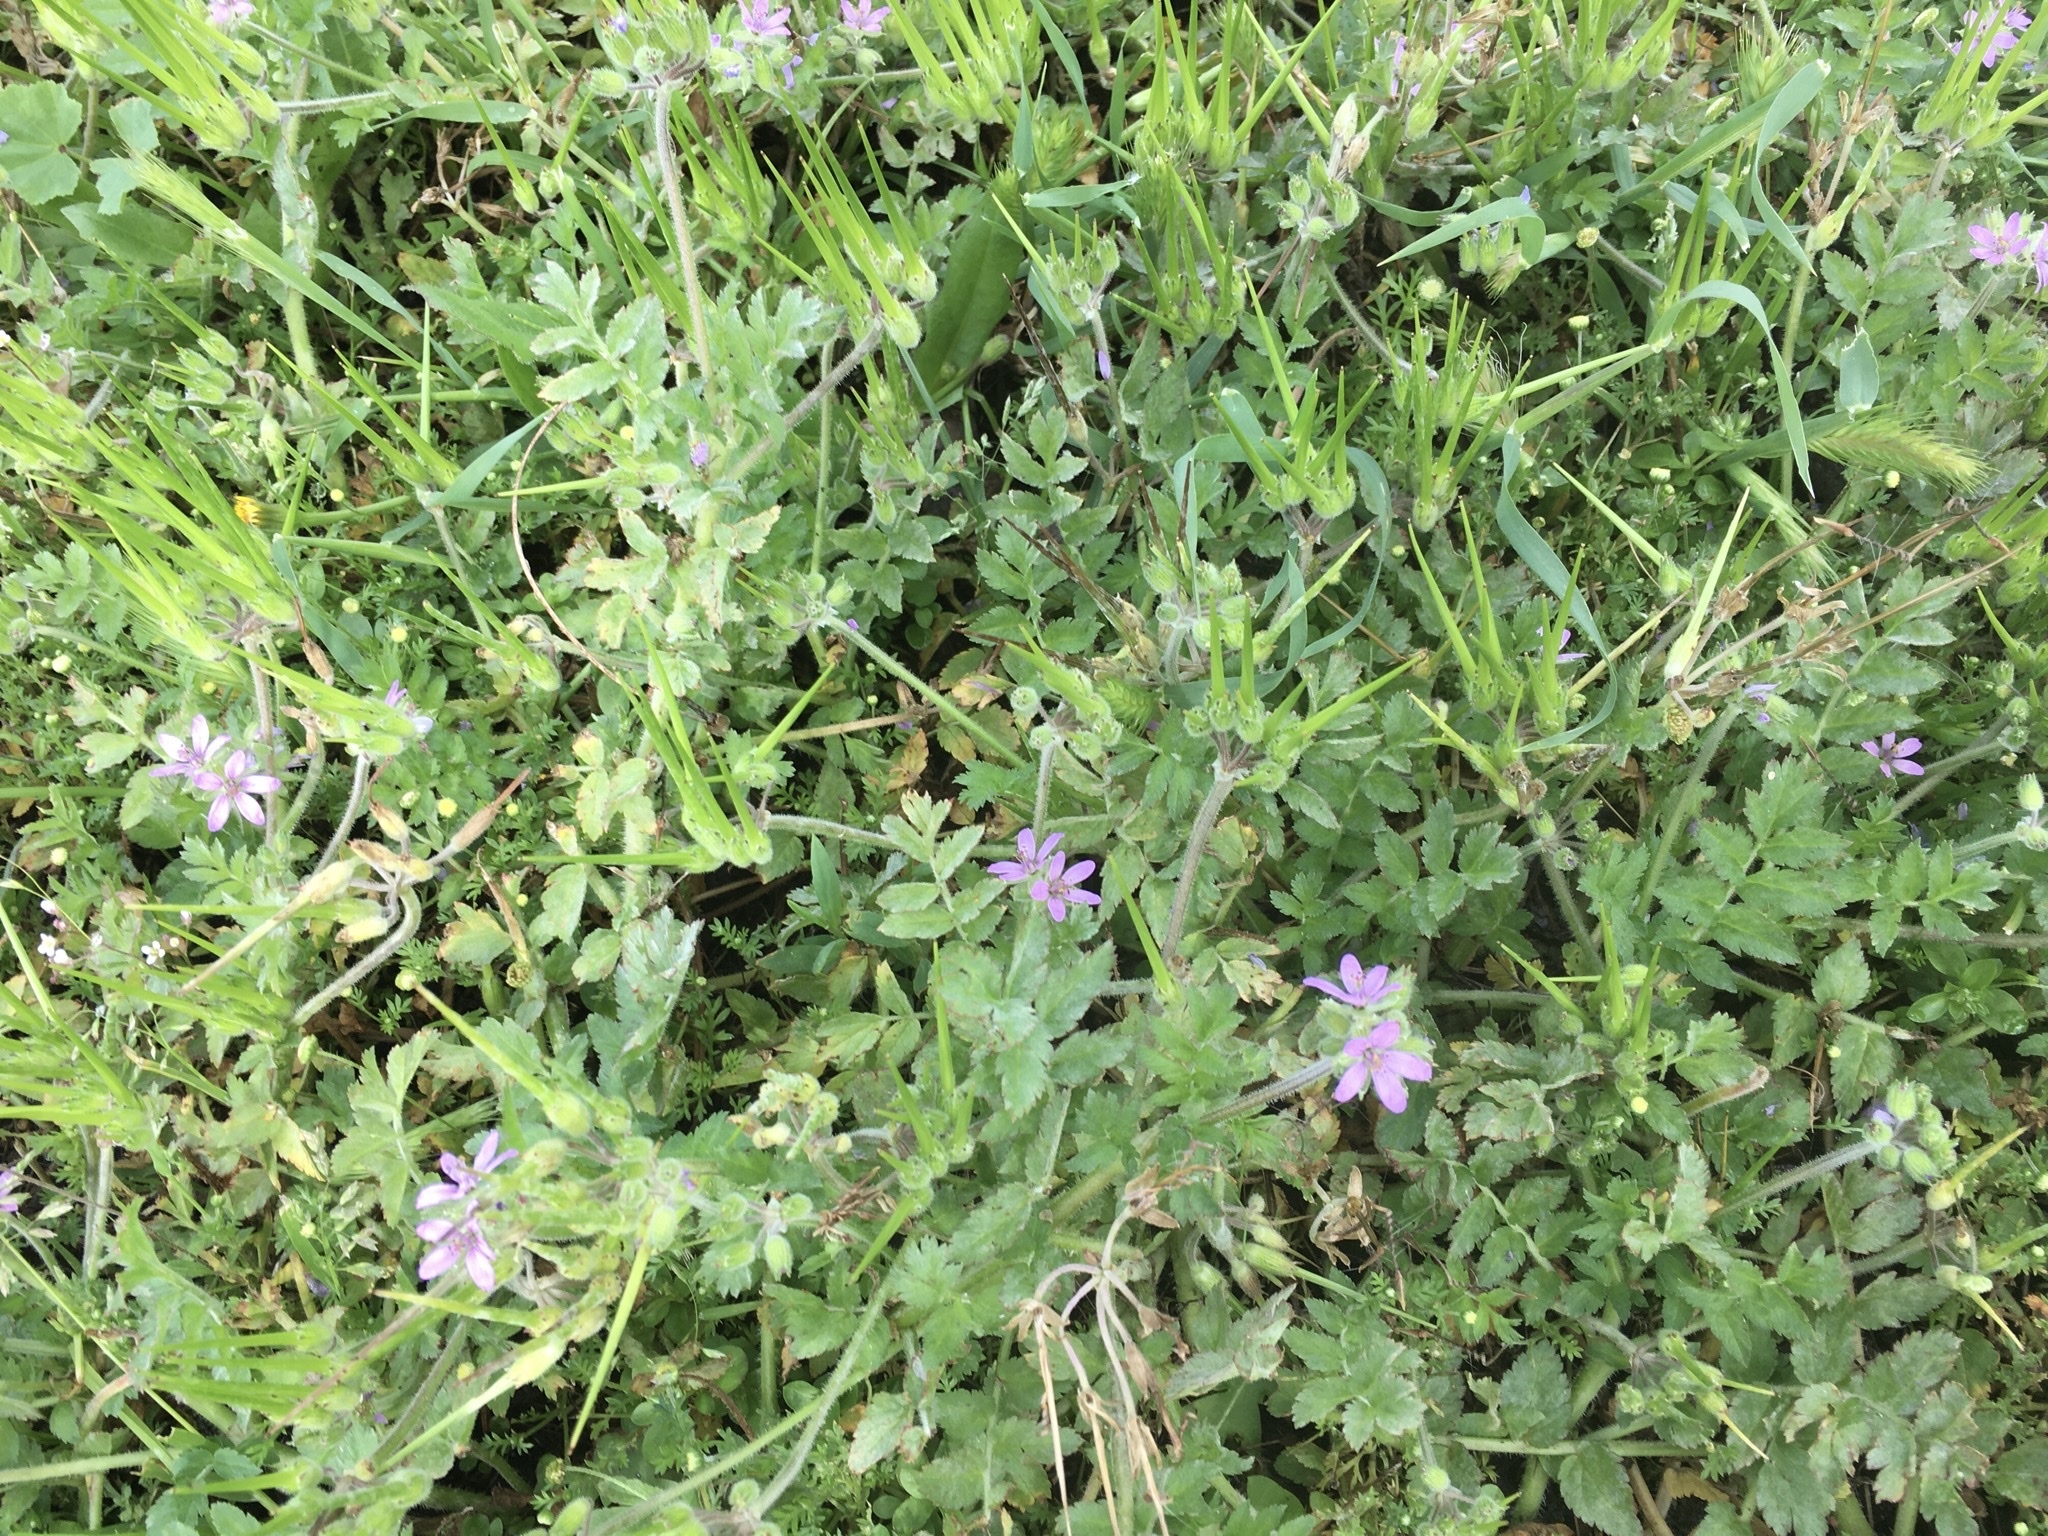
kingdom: Plantae
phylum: Tracheophyta
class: Magnoliopsida
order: Geraniales
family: Geraniaceae
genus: Erodium
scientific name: Erodium moschatum
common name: Musk stork's-bill
